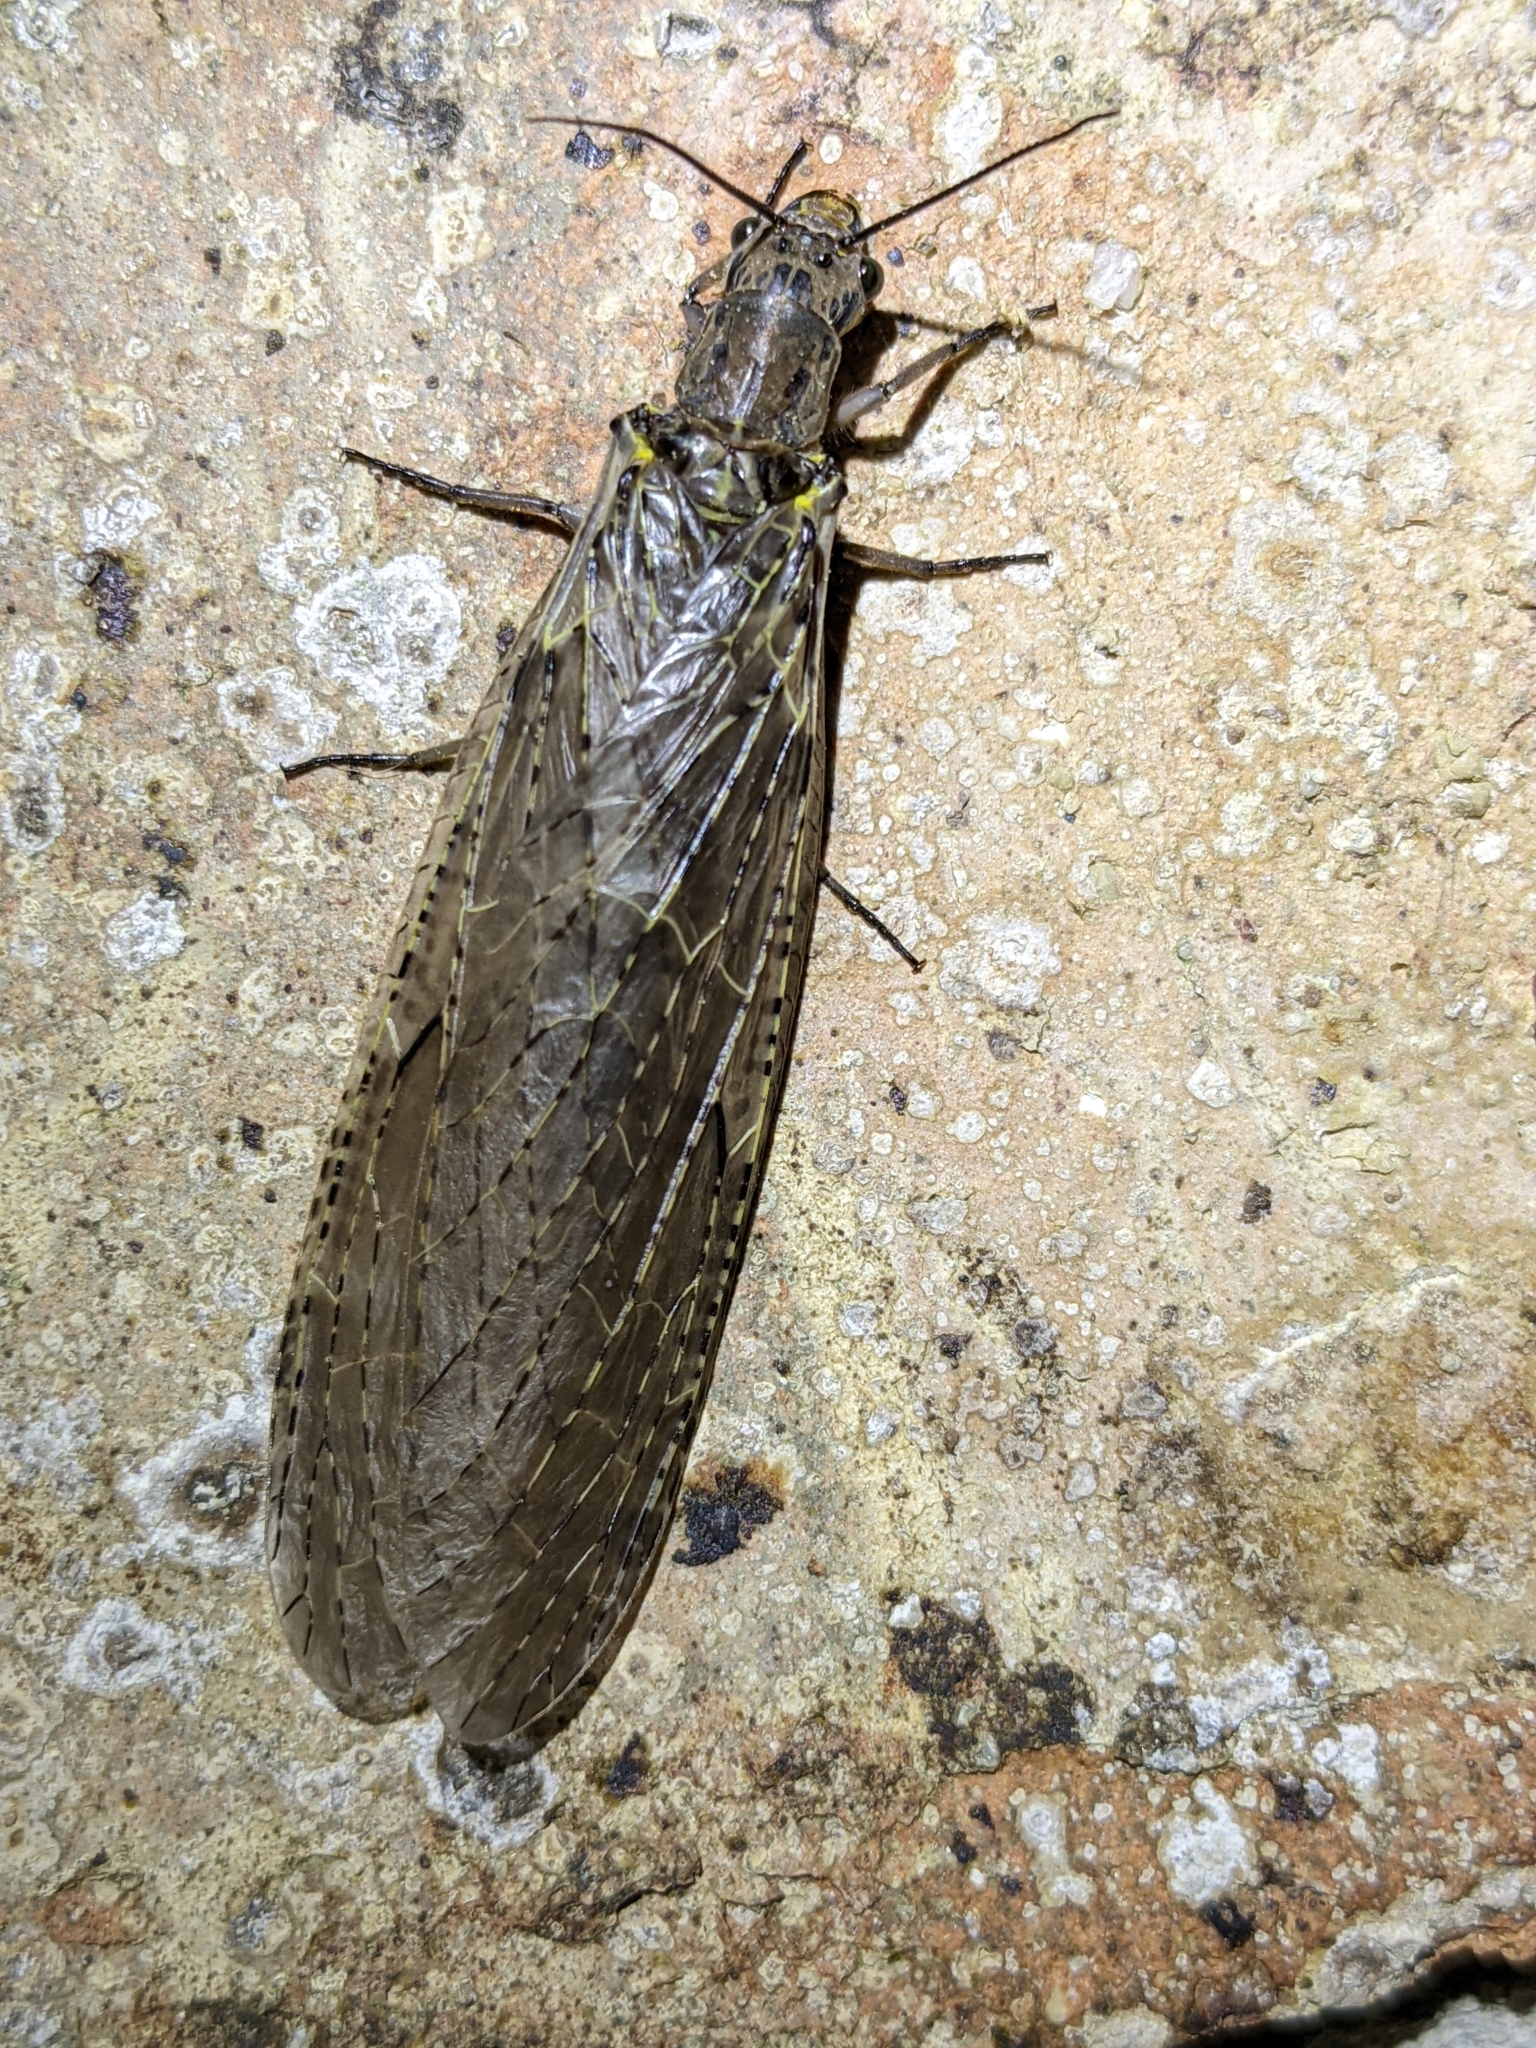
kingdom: Animalia
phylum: Arthropoda
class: Insecta
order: Megaloptera
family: Corydalidae
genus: Chauliodes
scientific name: Chauliodes rastricornis
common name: Spring fishfly
